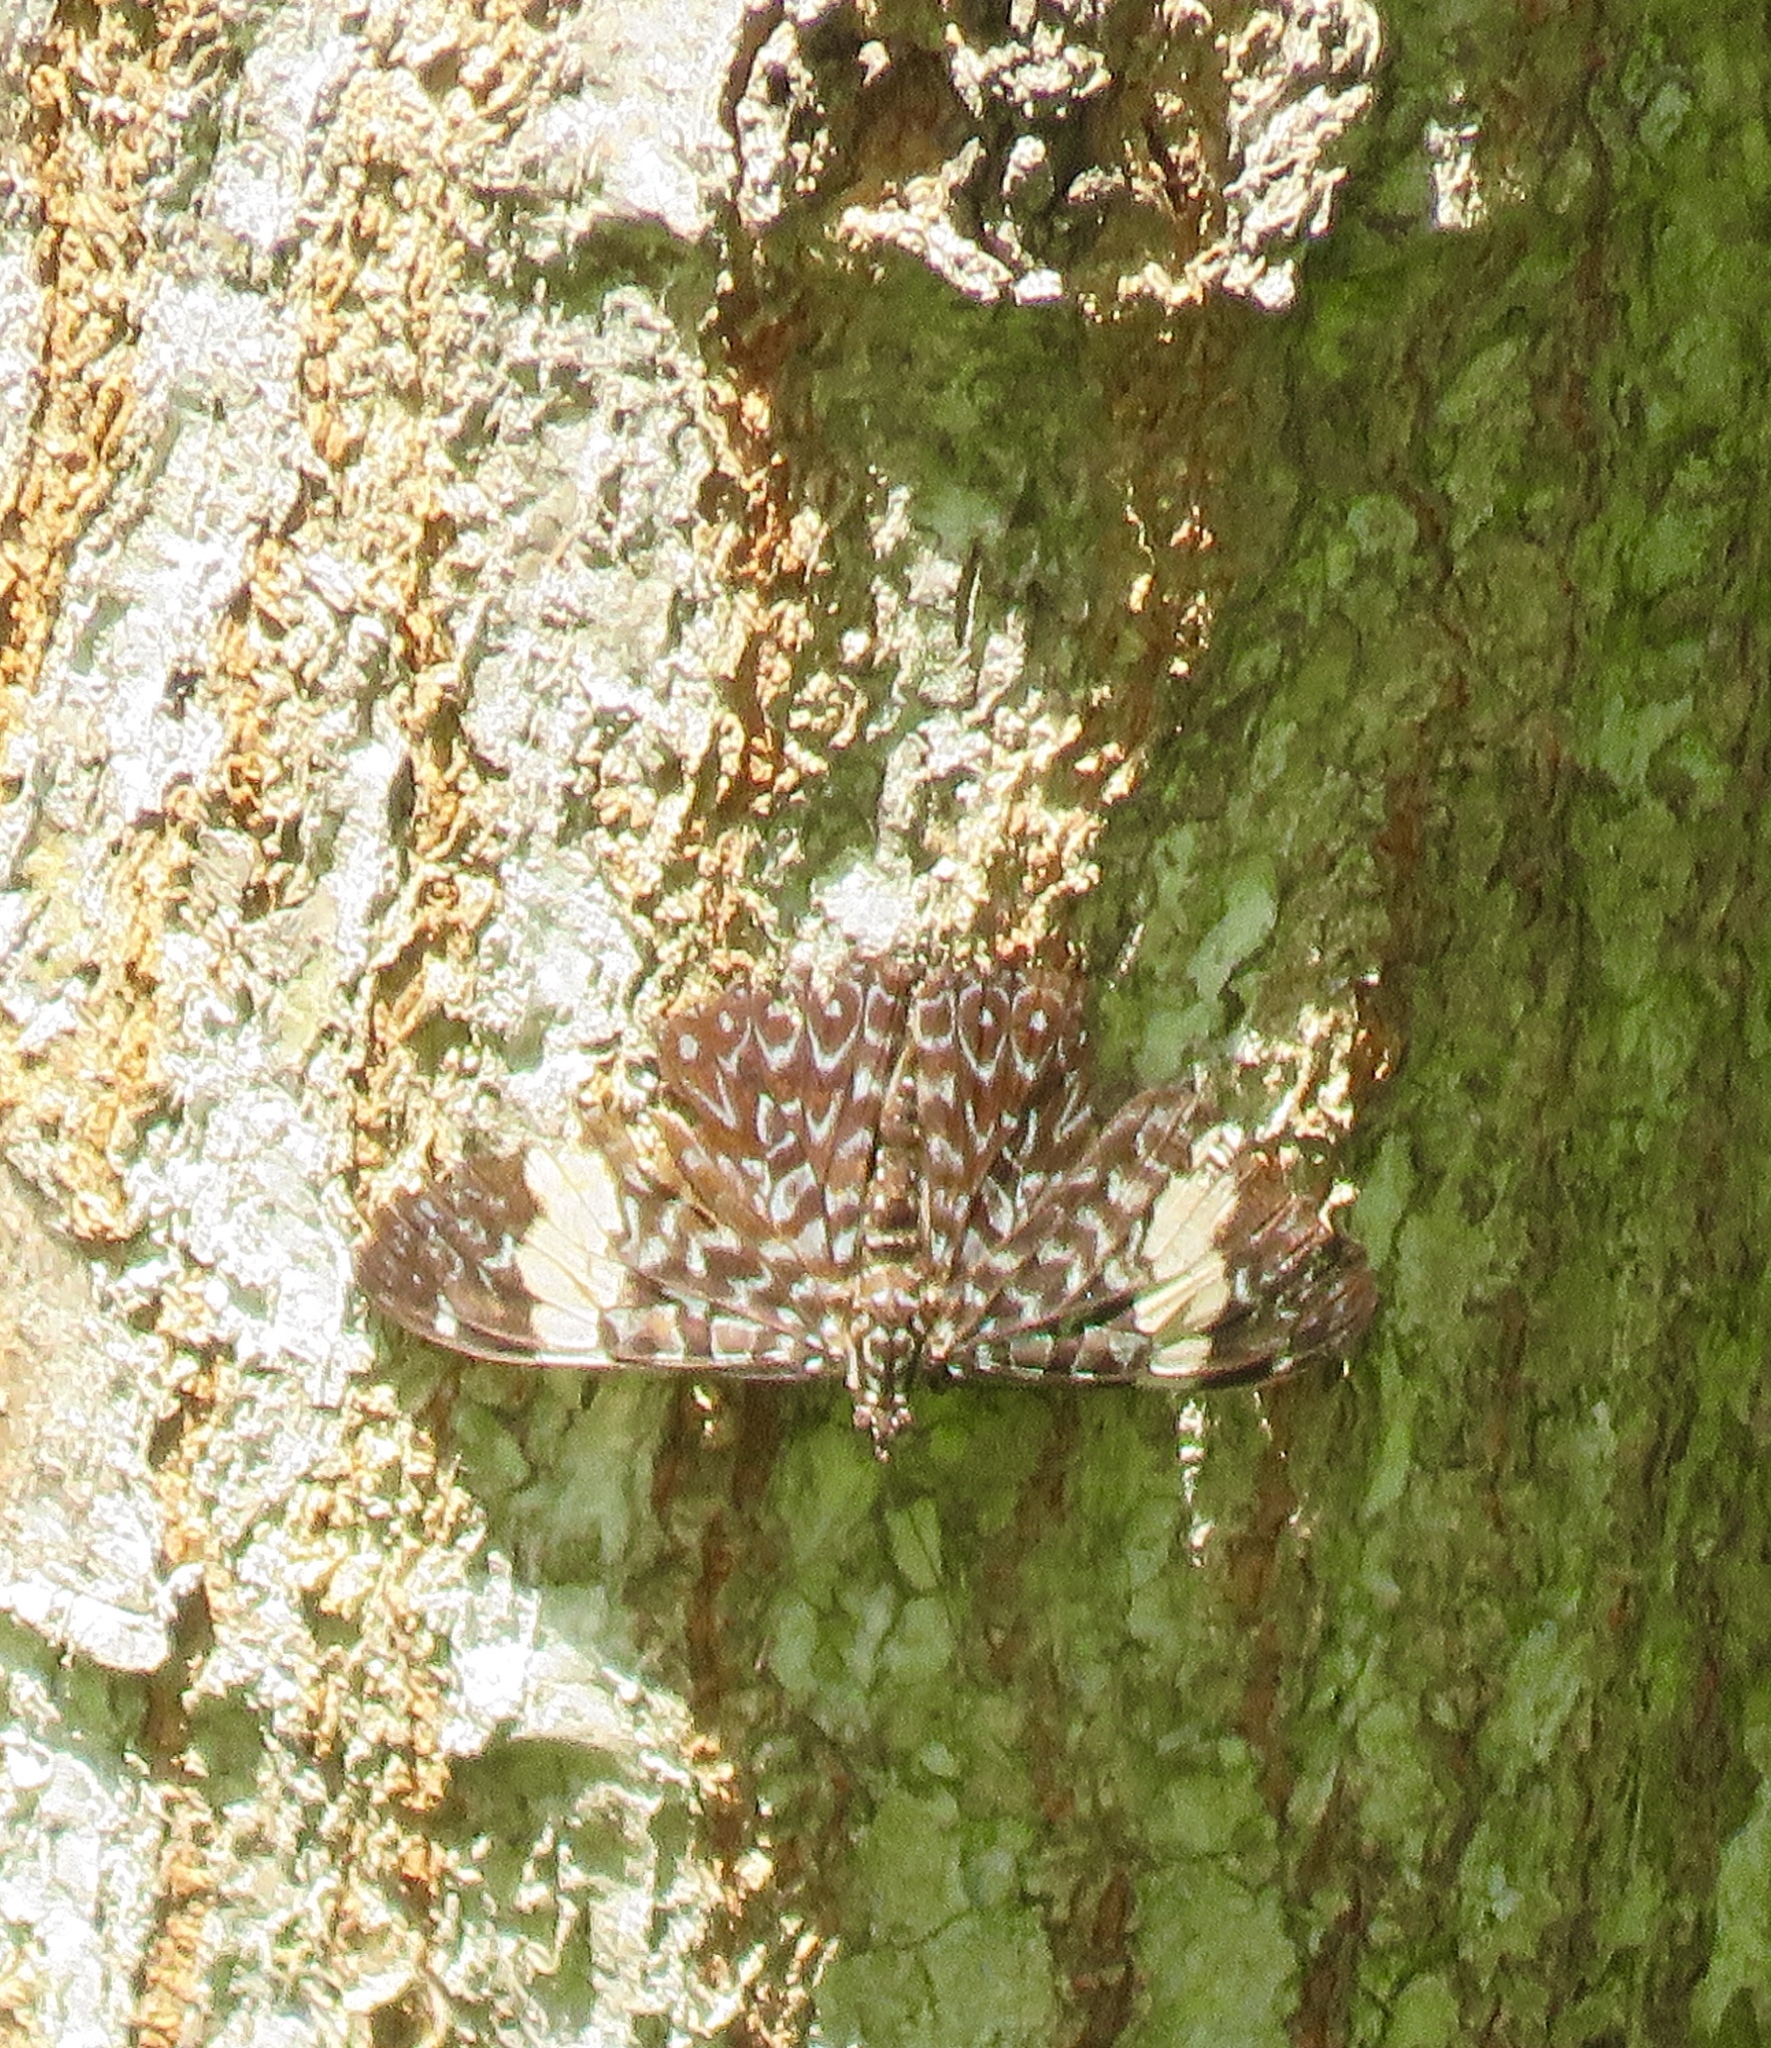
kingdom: Animalia
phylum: Arthropoda
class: Insecta
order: Lepidoptera
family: Nymphalidae
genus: Hamadryas
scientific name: Hamadryas amphinome
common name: Red cracker
